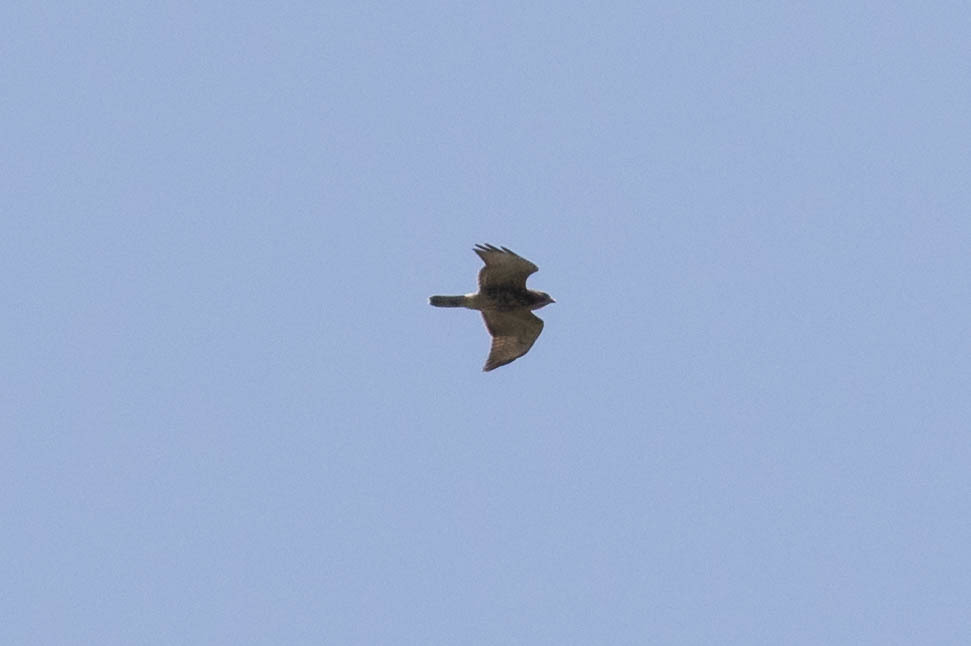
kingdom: Animalia
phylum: Chordata
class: Aves
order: Accipitriformes
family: Accipitridae
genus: Buteo
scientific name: Buteo platypterus
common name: Broad-winged hawk
